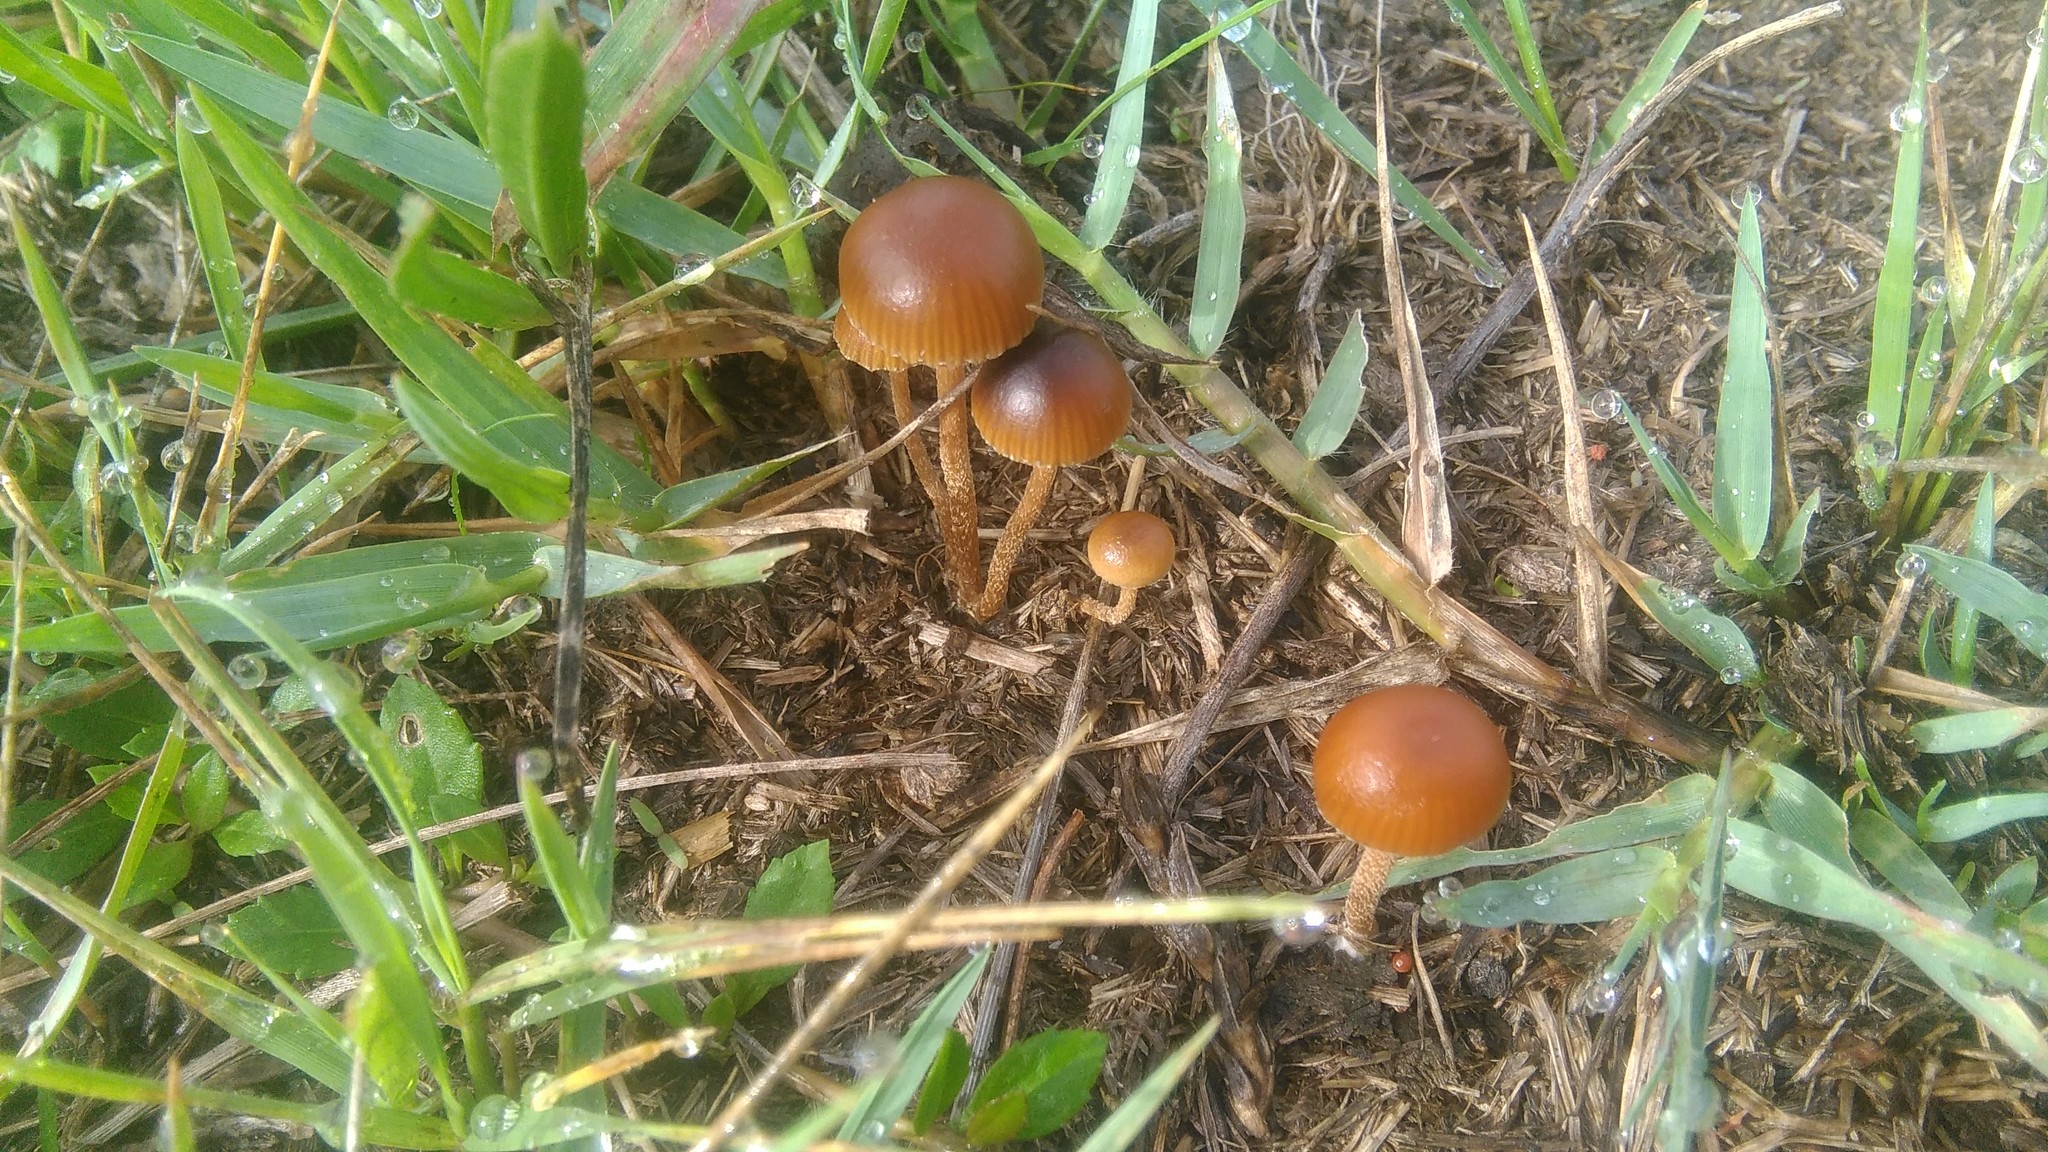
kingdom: Fungi
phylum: Basidiomycota
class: Agaricomycetes
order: Agaricales
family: Strophariaceae
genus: Deconica
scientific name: Deconica coprophila
